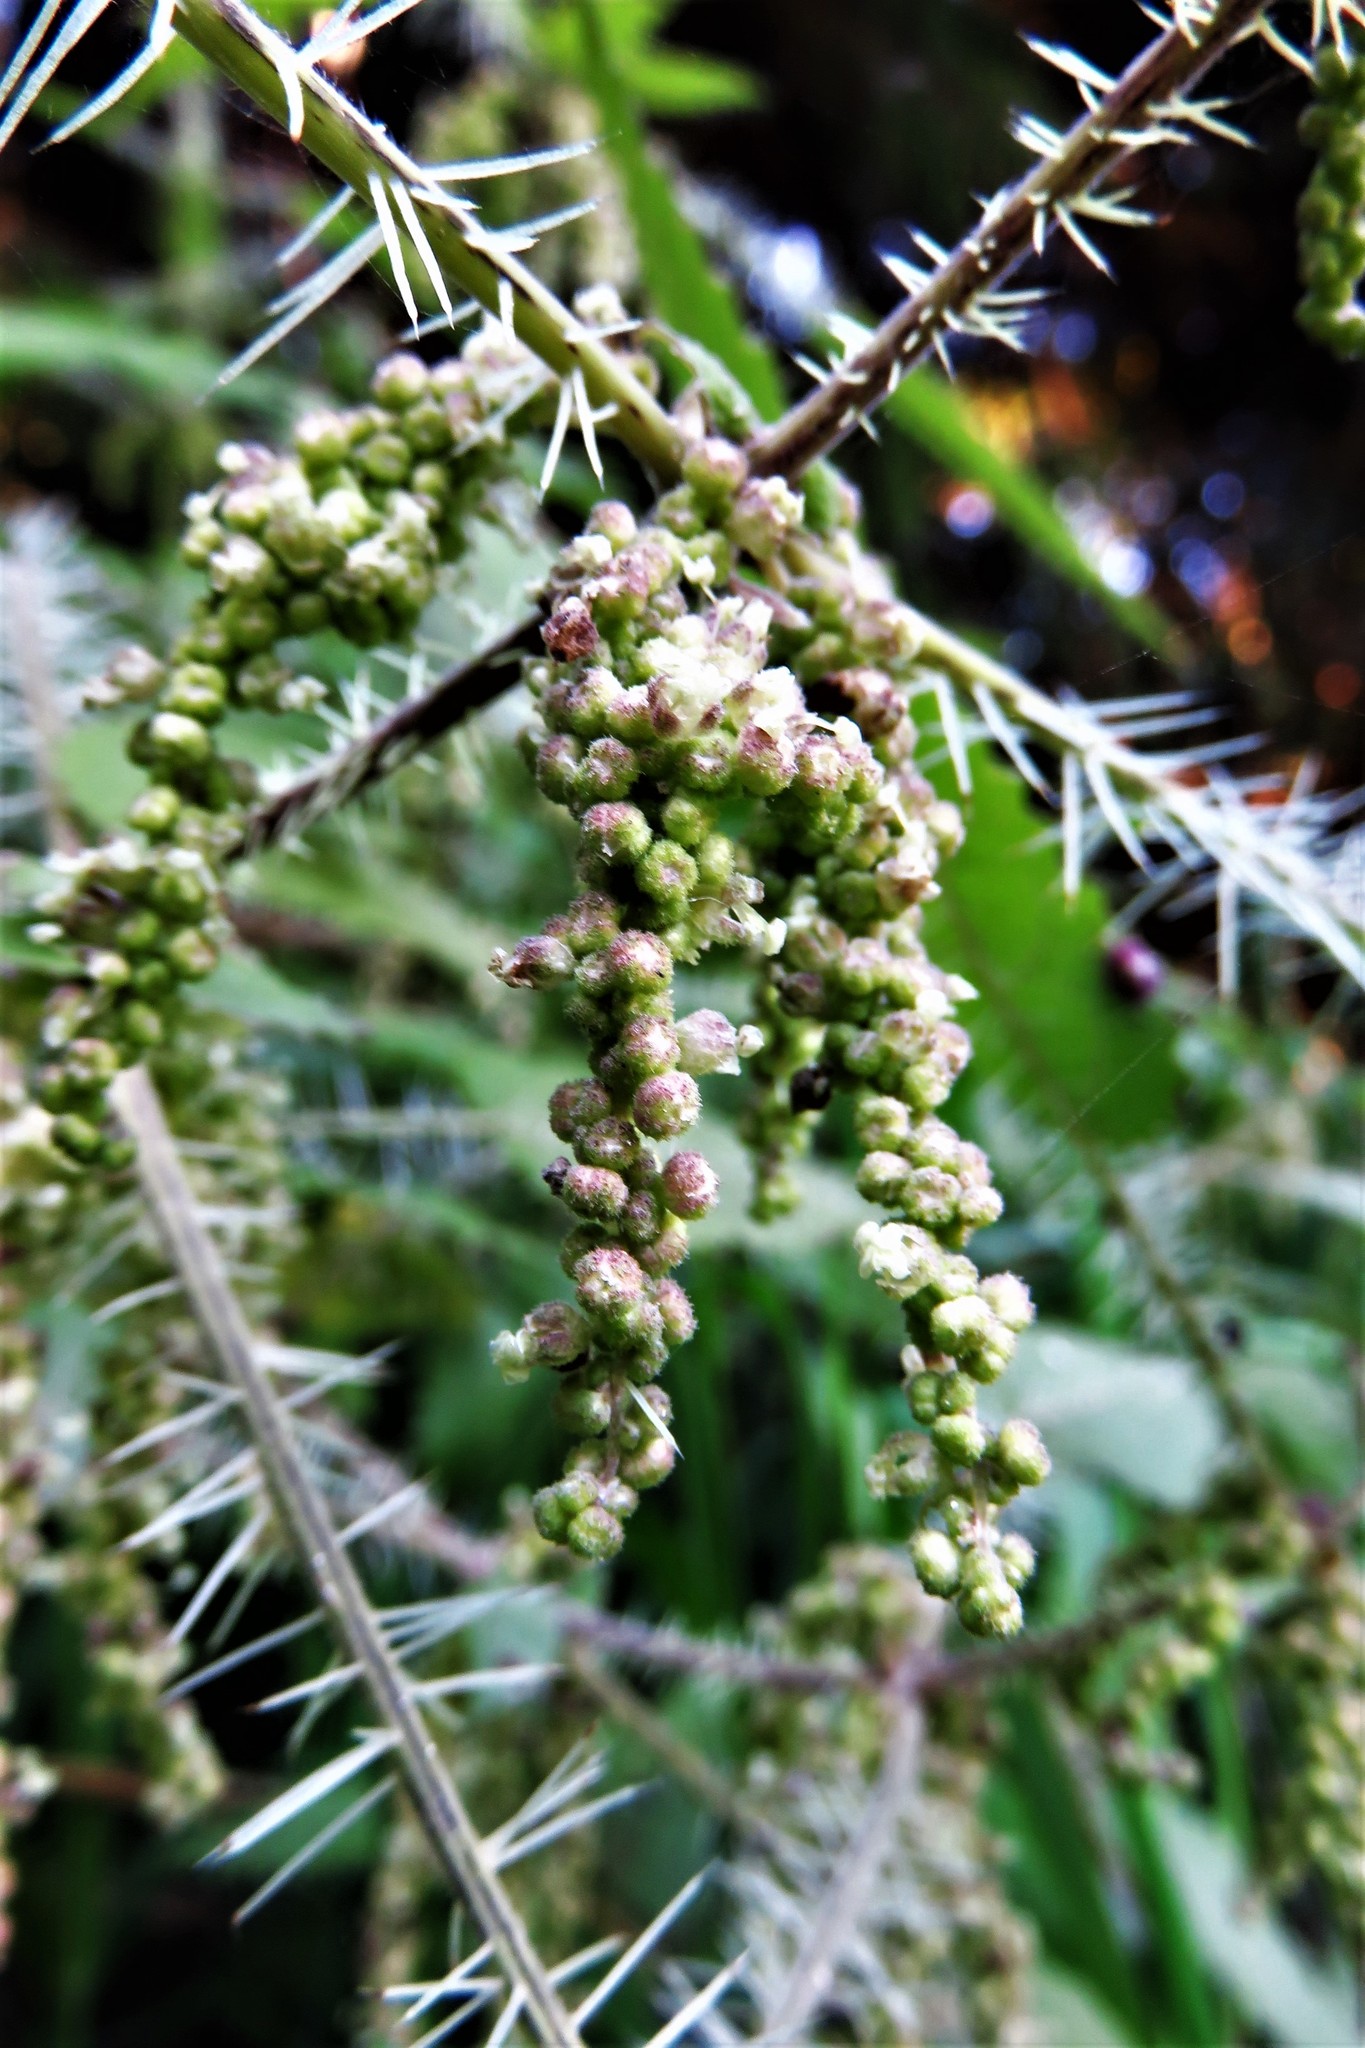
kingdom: Plantae
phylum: Tracheophyta
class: Magnoliopsida
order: Rosales
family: Urticaceae
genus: Urtica
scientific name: Urtica ferox
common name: Tree nettle
